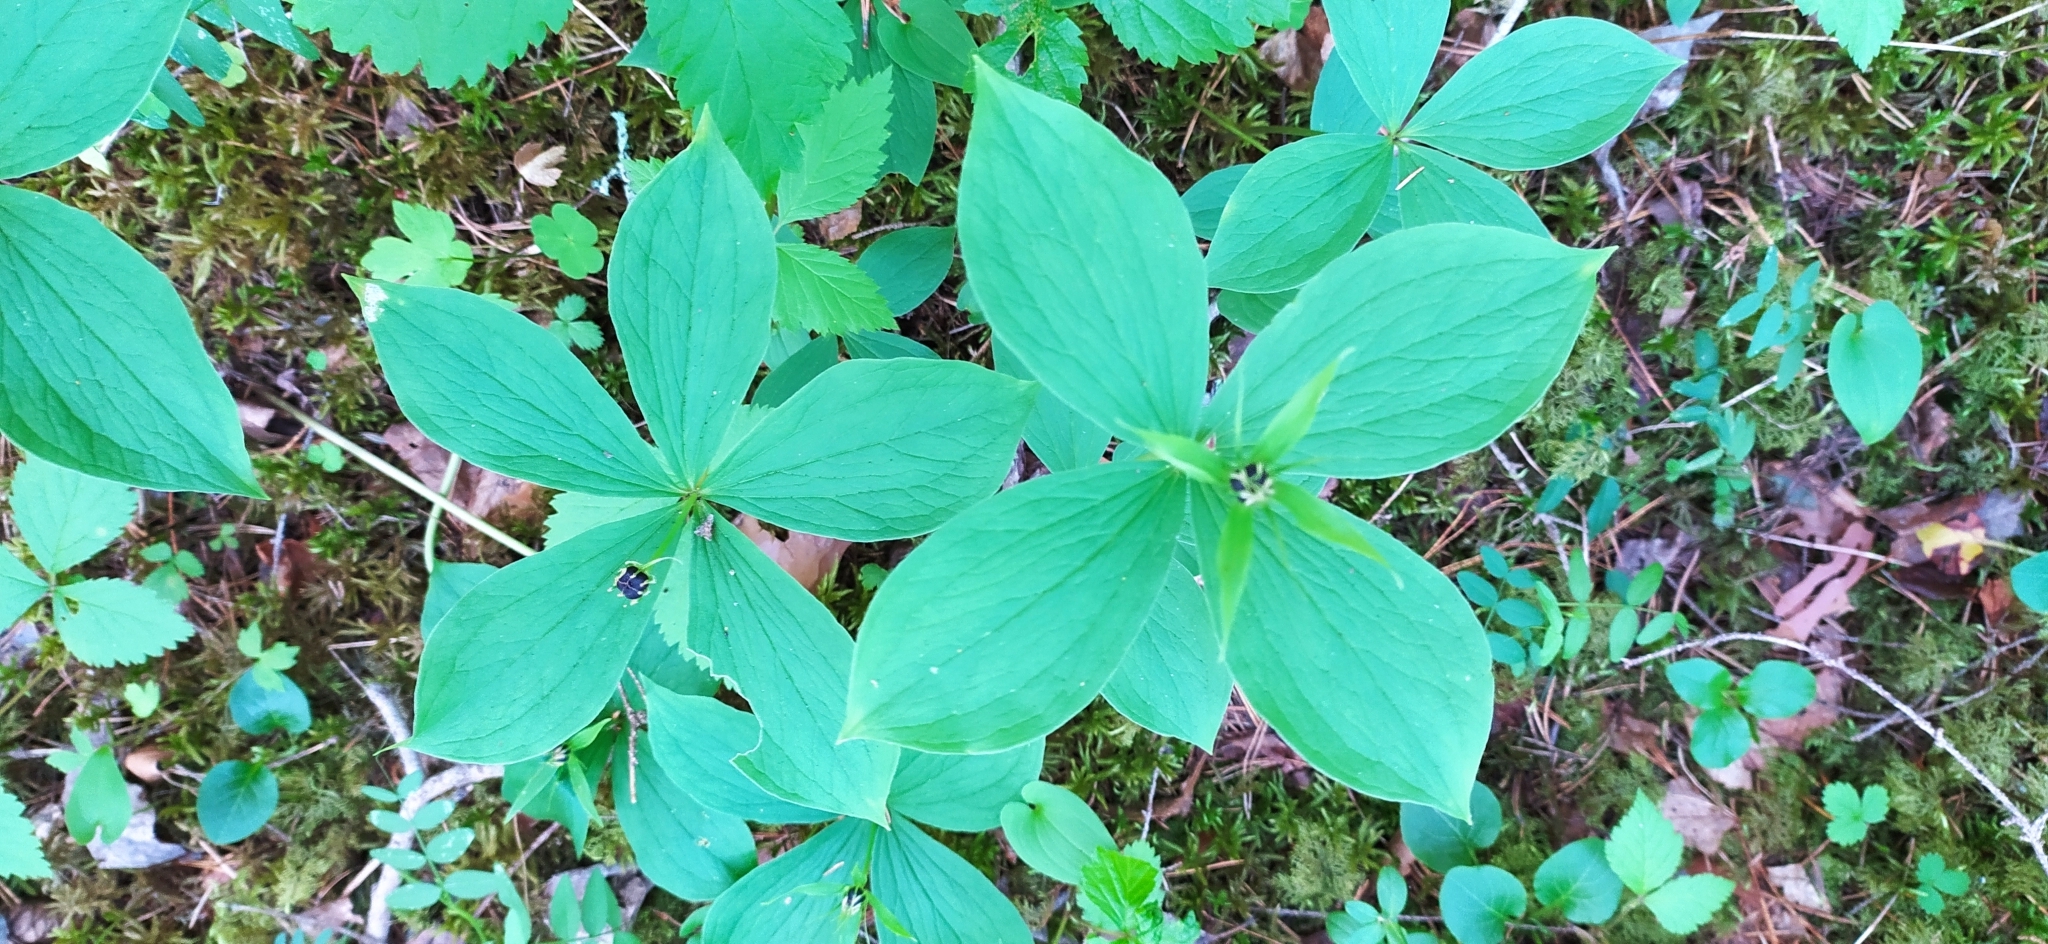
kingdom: Plantae
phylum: Tracheophyta
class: Liliopsida
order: Liliales
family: Melanthiaceae
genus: Paris
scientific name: Paris quadrifolia
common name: Herb-paris
